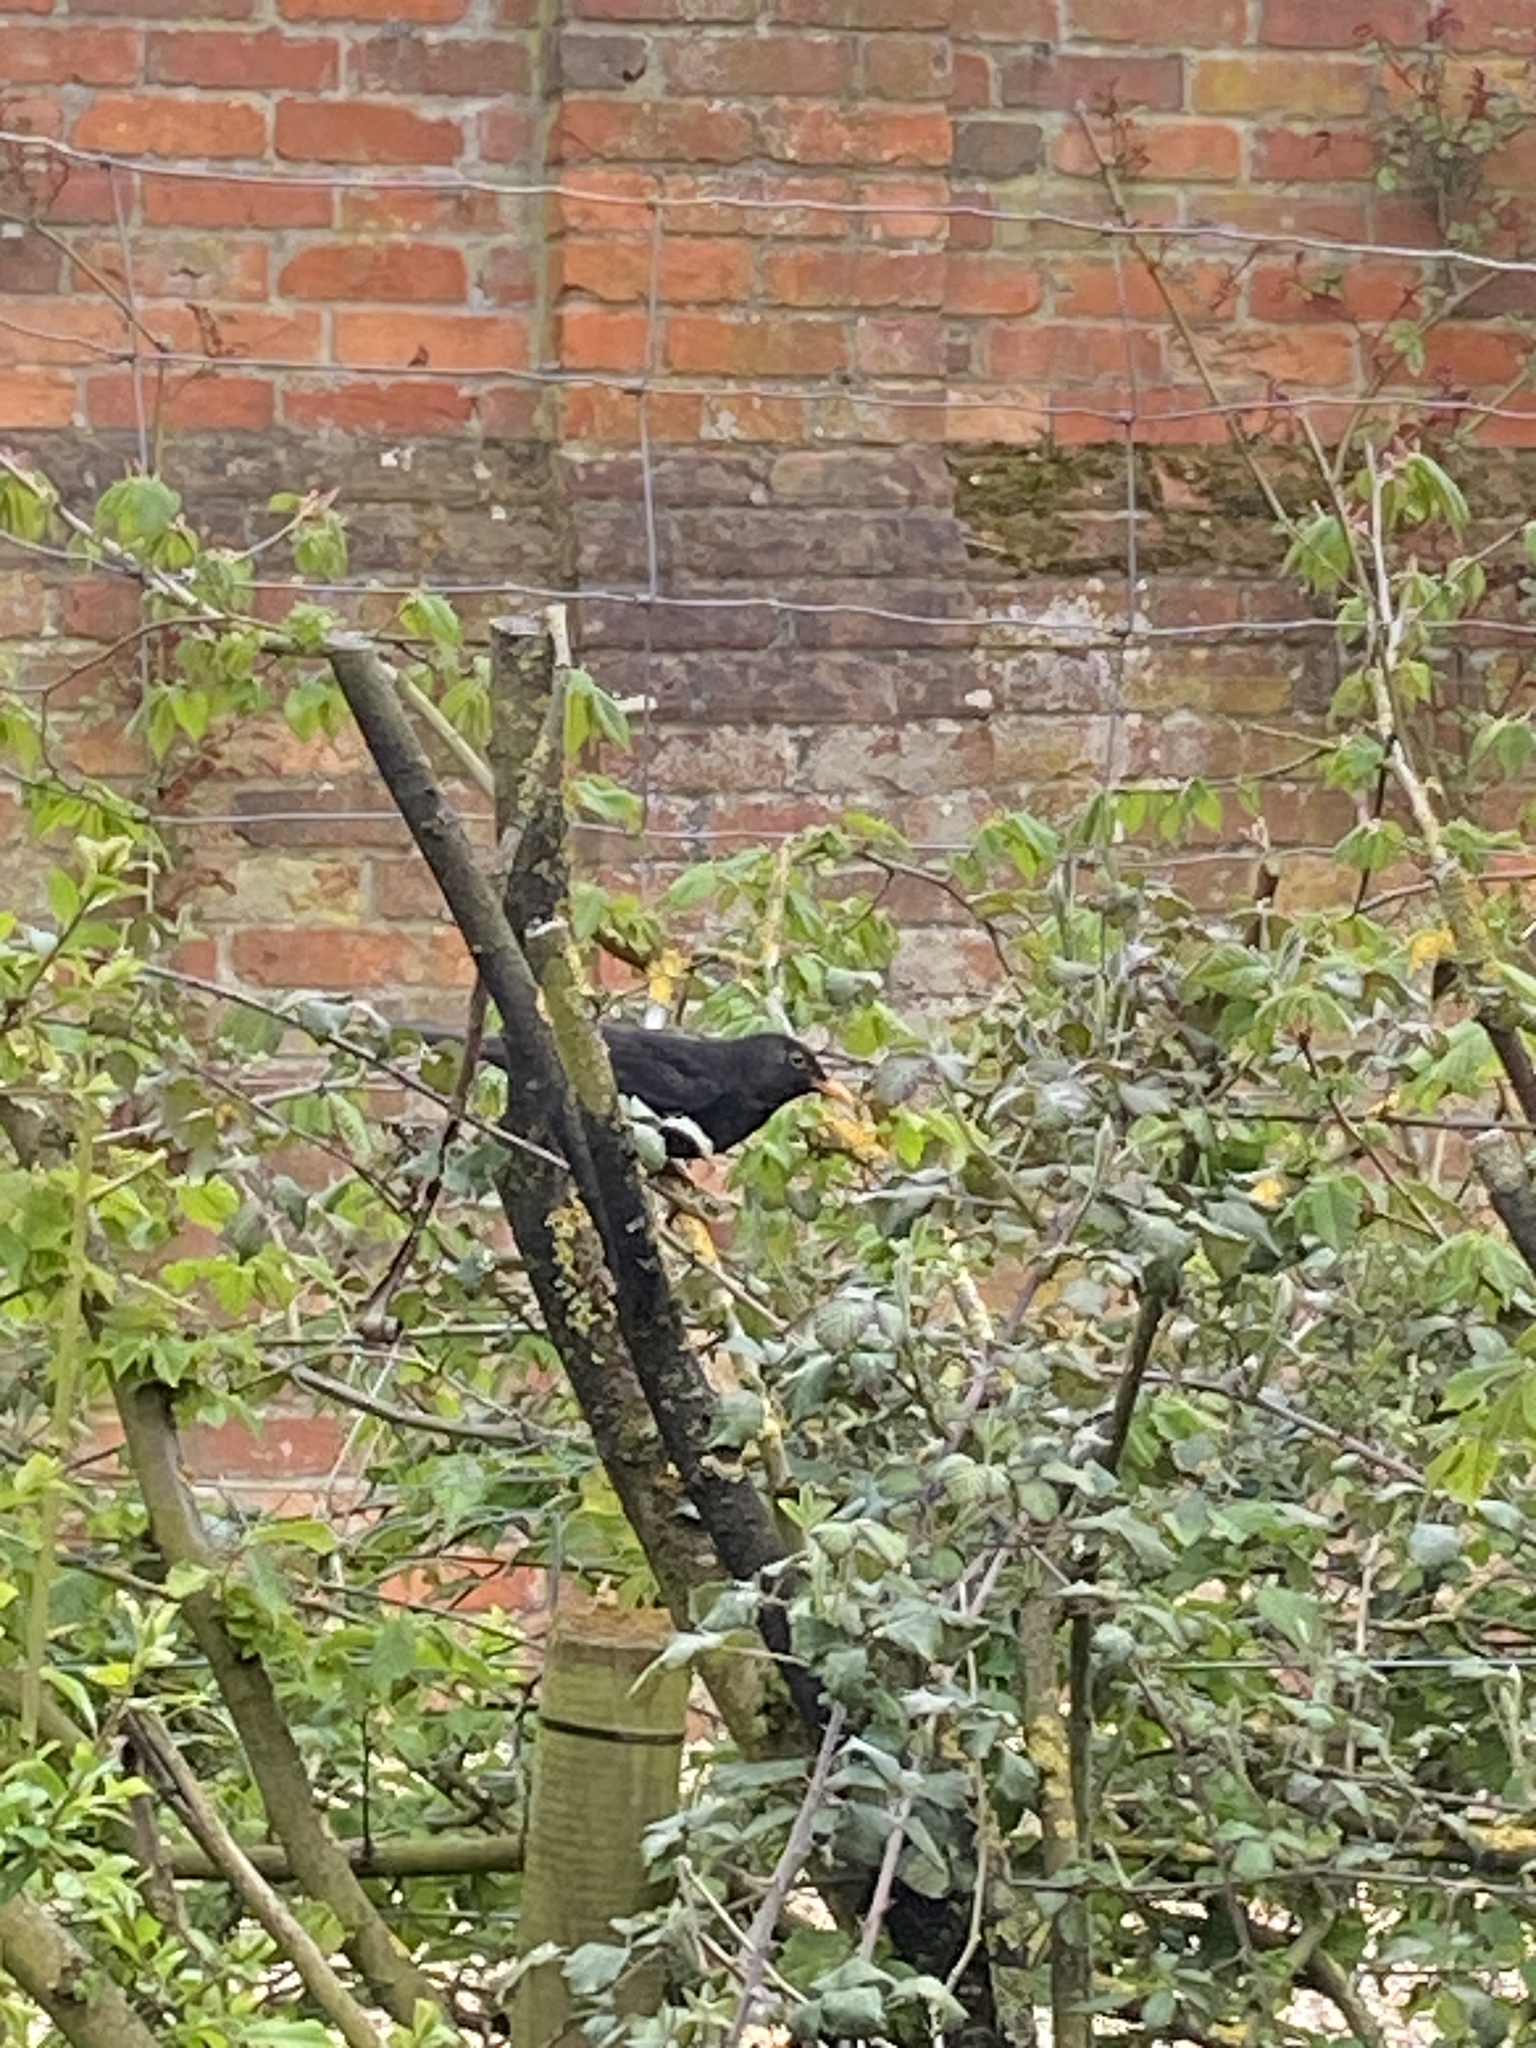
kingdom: Animalia
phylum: Chordata
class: Aves
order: Passeriformes
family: Turdidae
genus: Turdus
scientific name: Turdus merula
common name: Common blackbird
